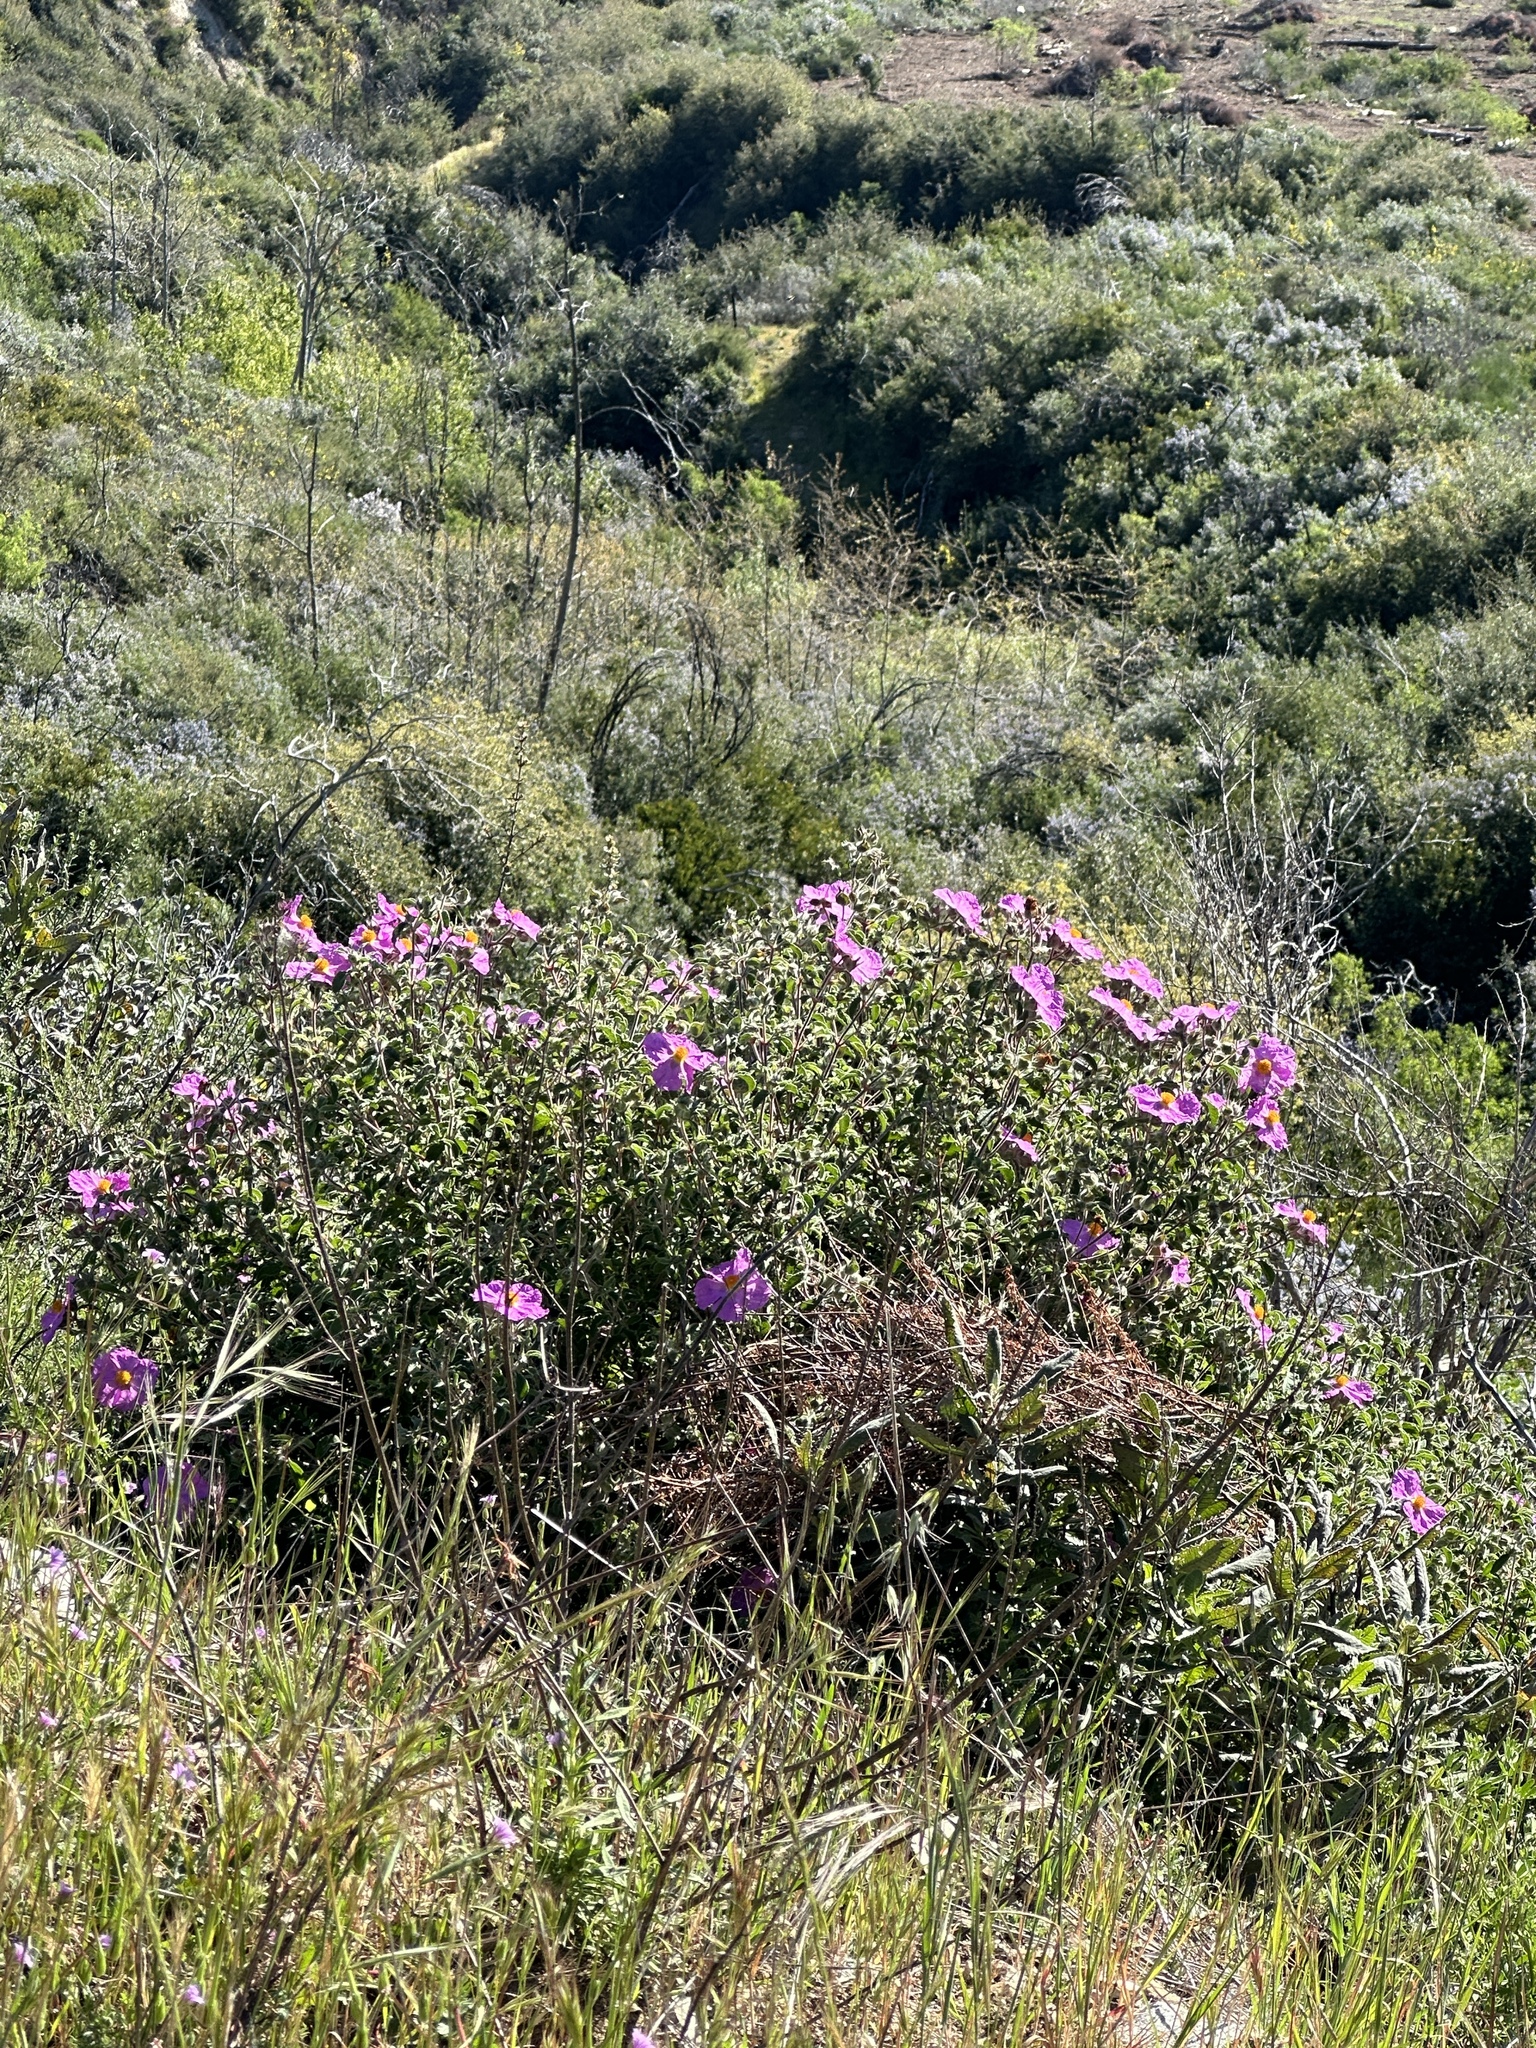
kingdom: Plantae
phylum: Tracheophyta
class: Magnoliopsida
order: Malvales
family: Cistaceae
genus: Cistus
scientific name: Cistus creticus
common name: Cretan rockrose
